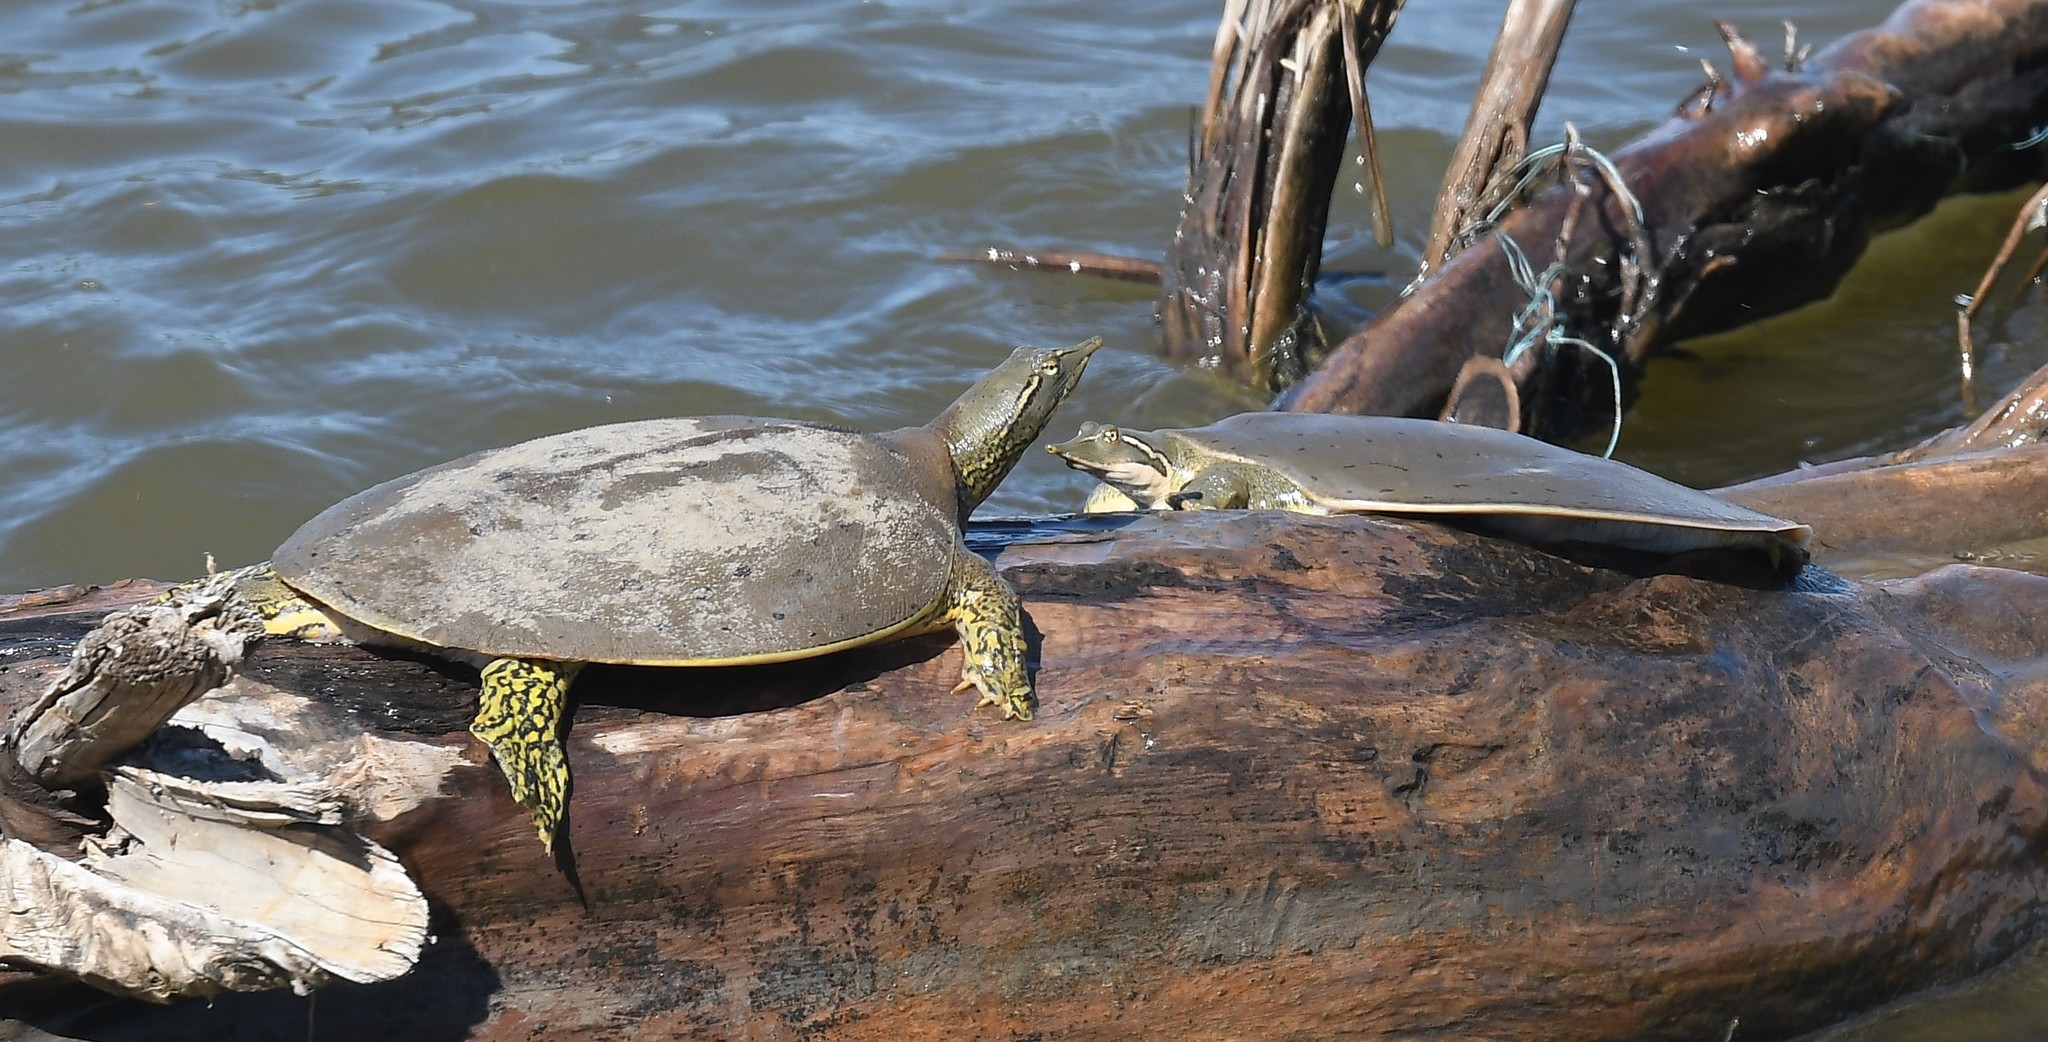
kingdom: Animalia
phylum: Chordata
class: Testudines
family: Trionychidae
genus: Apalone
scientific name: Apalone mutica
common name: Smooth softshell turtle
